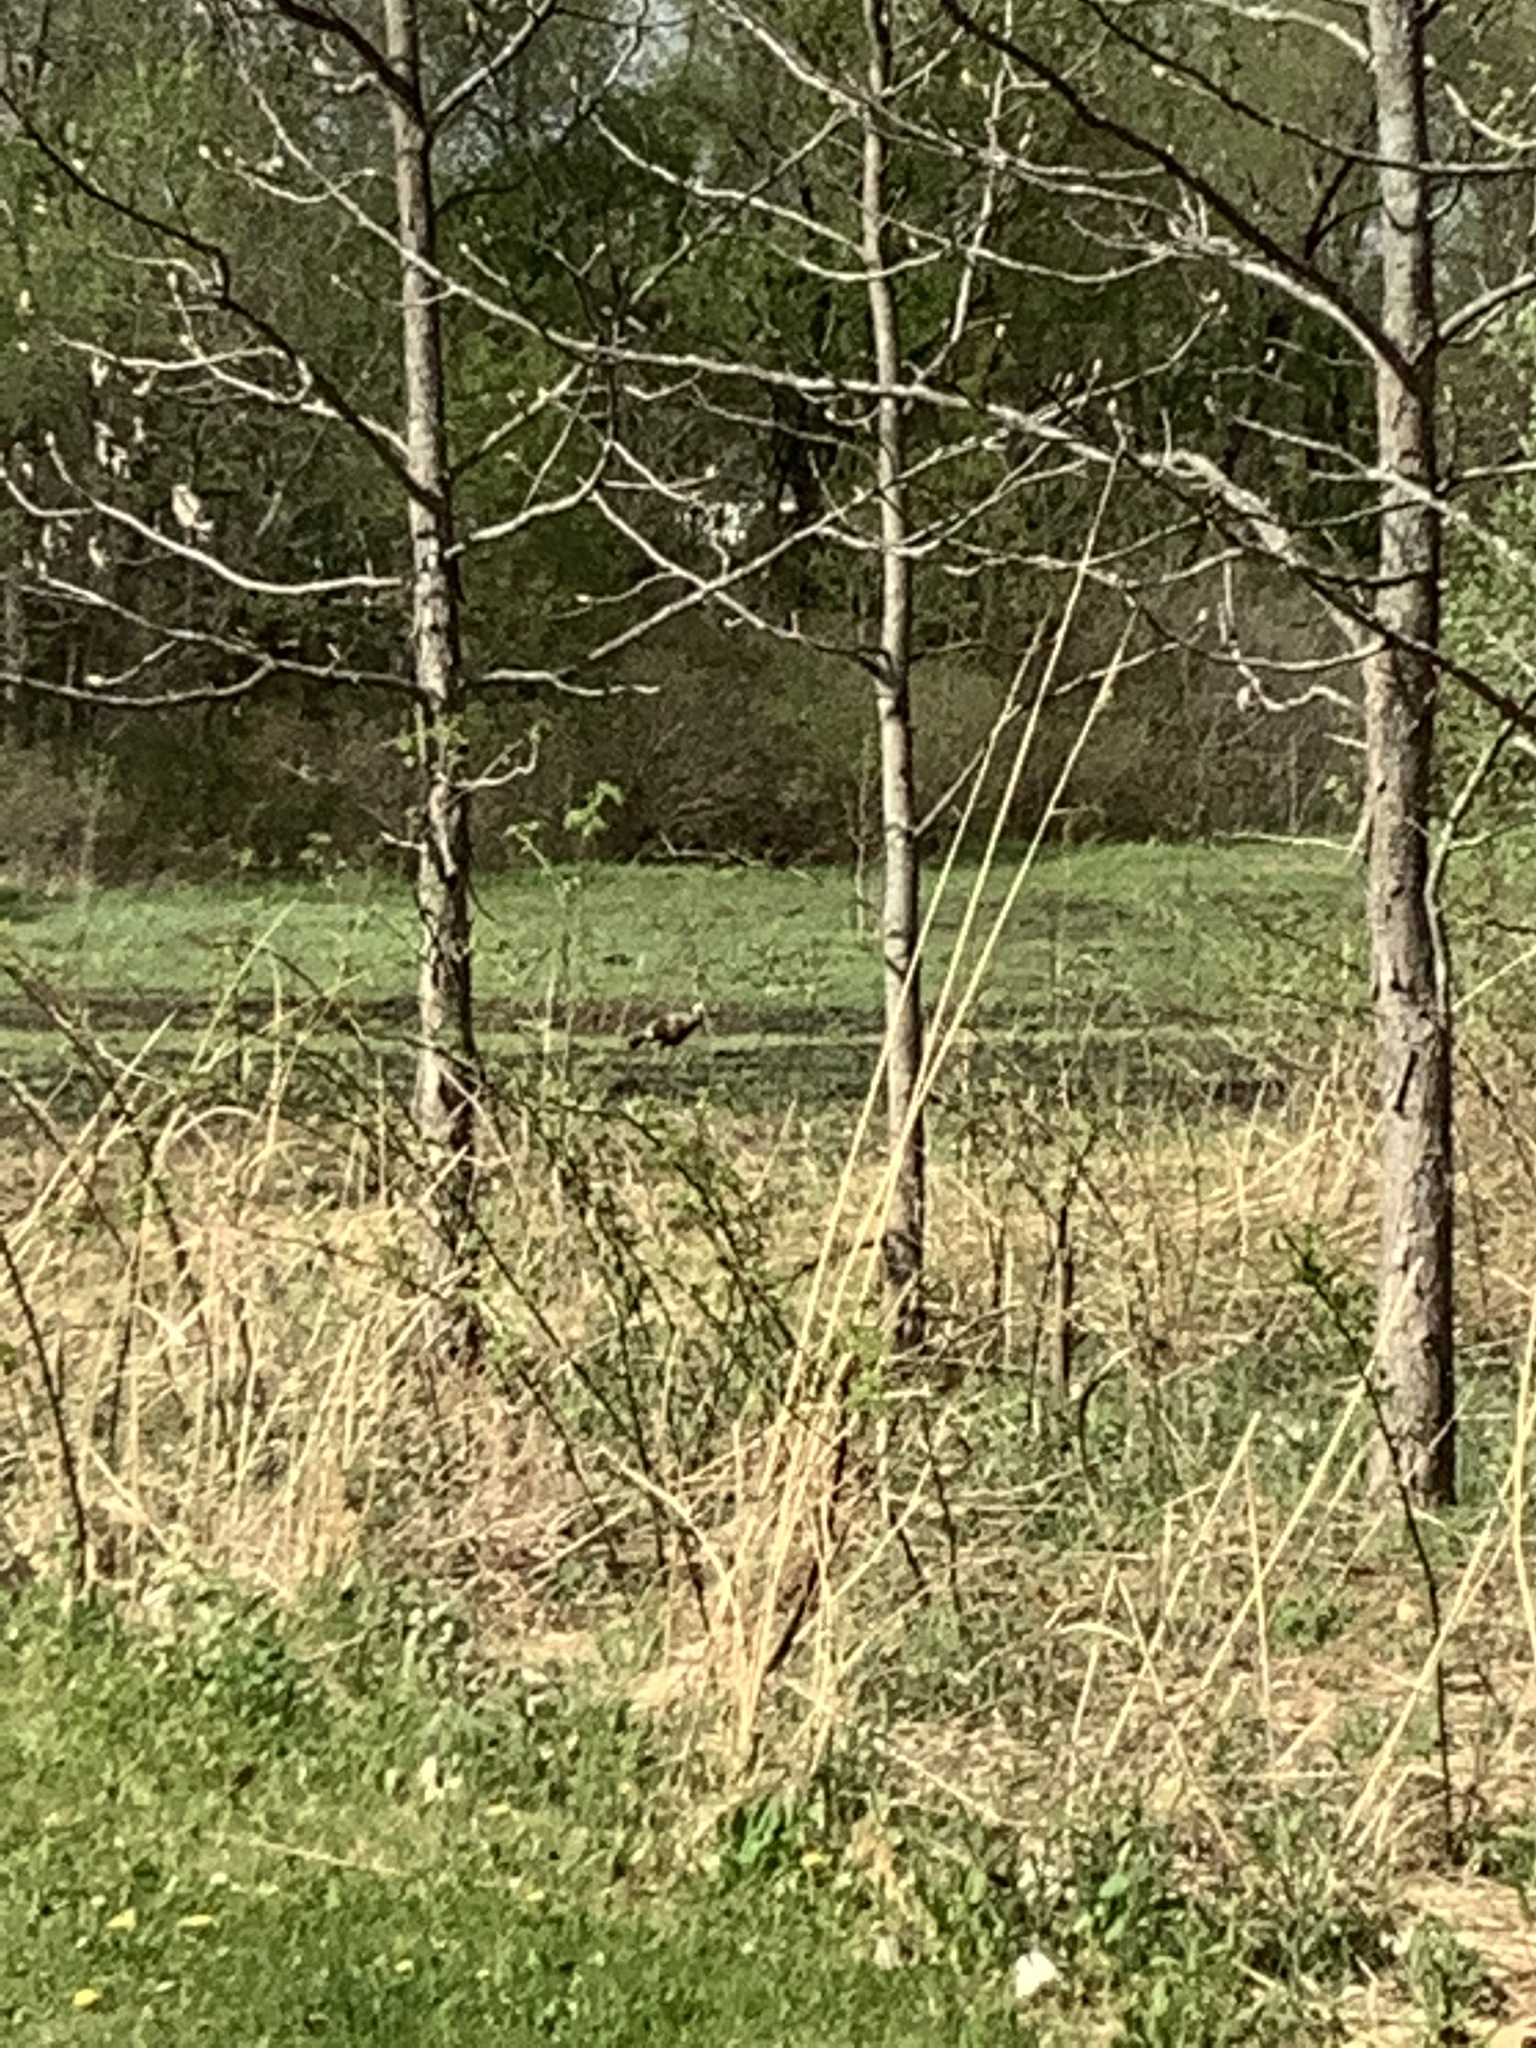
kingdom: Animalia
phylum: Chordata
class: Aves
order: Galliformes
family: Phasianidae
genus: Meleagris
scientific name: Meleagris gallopavo
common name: Wild turkey
